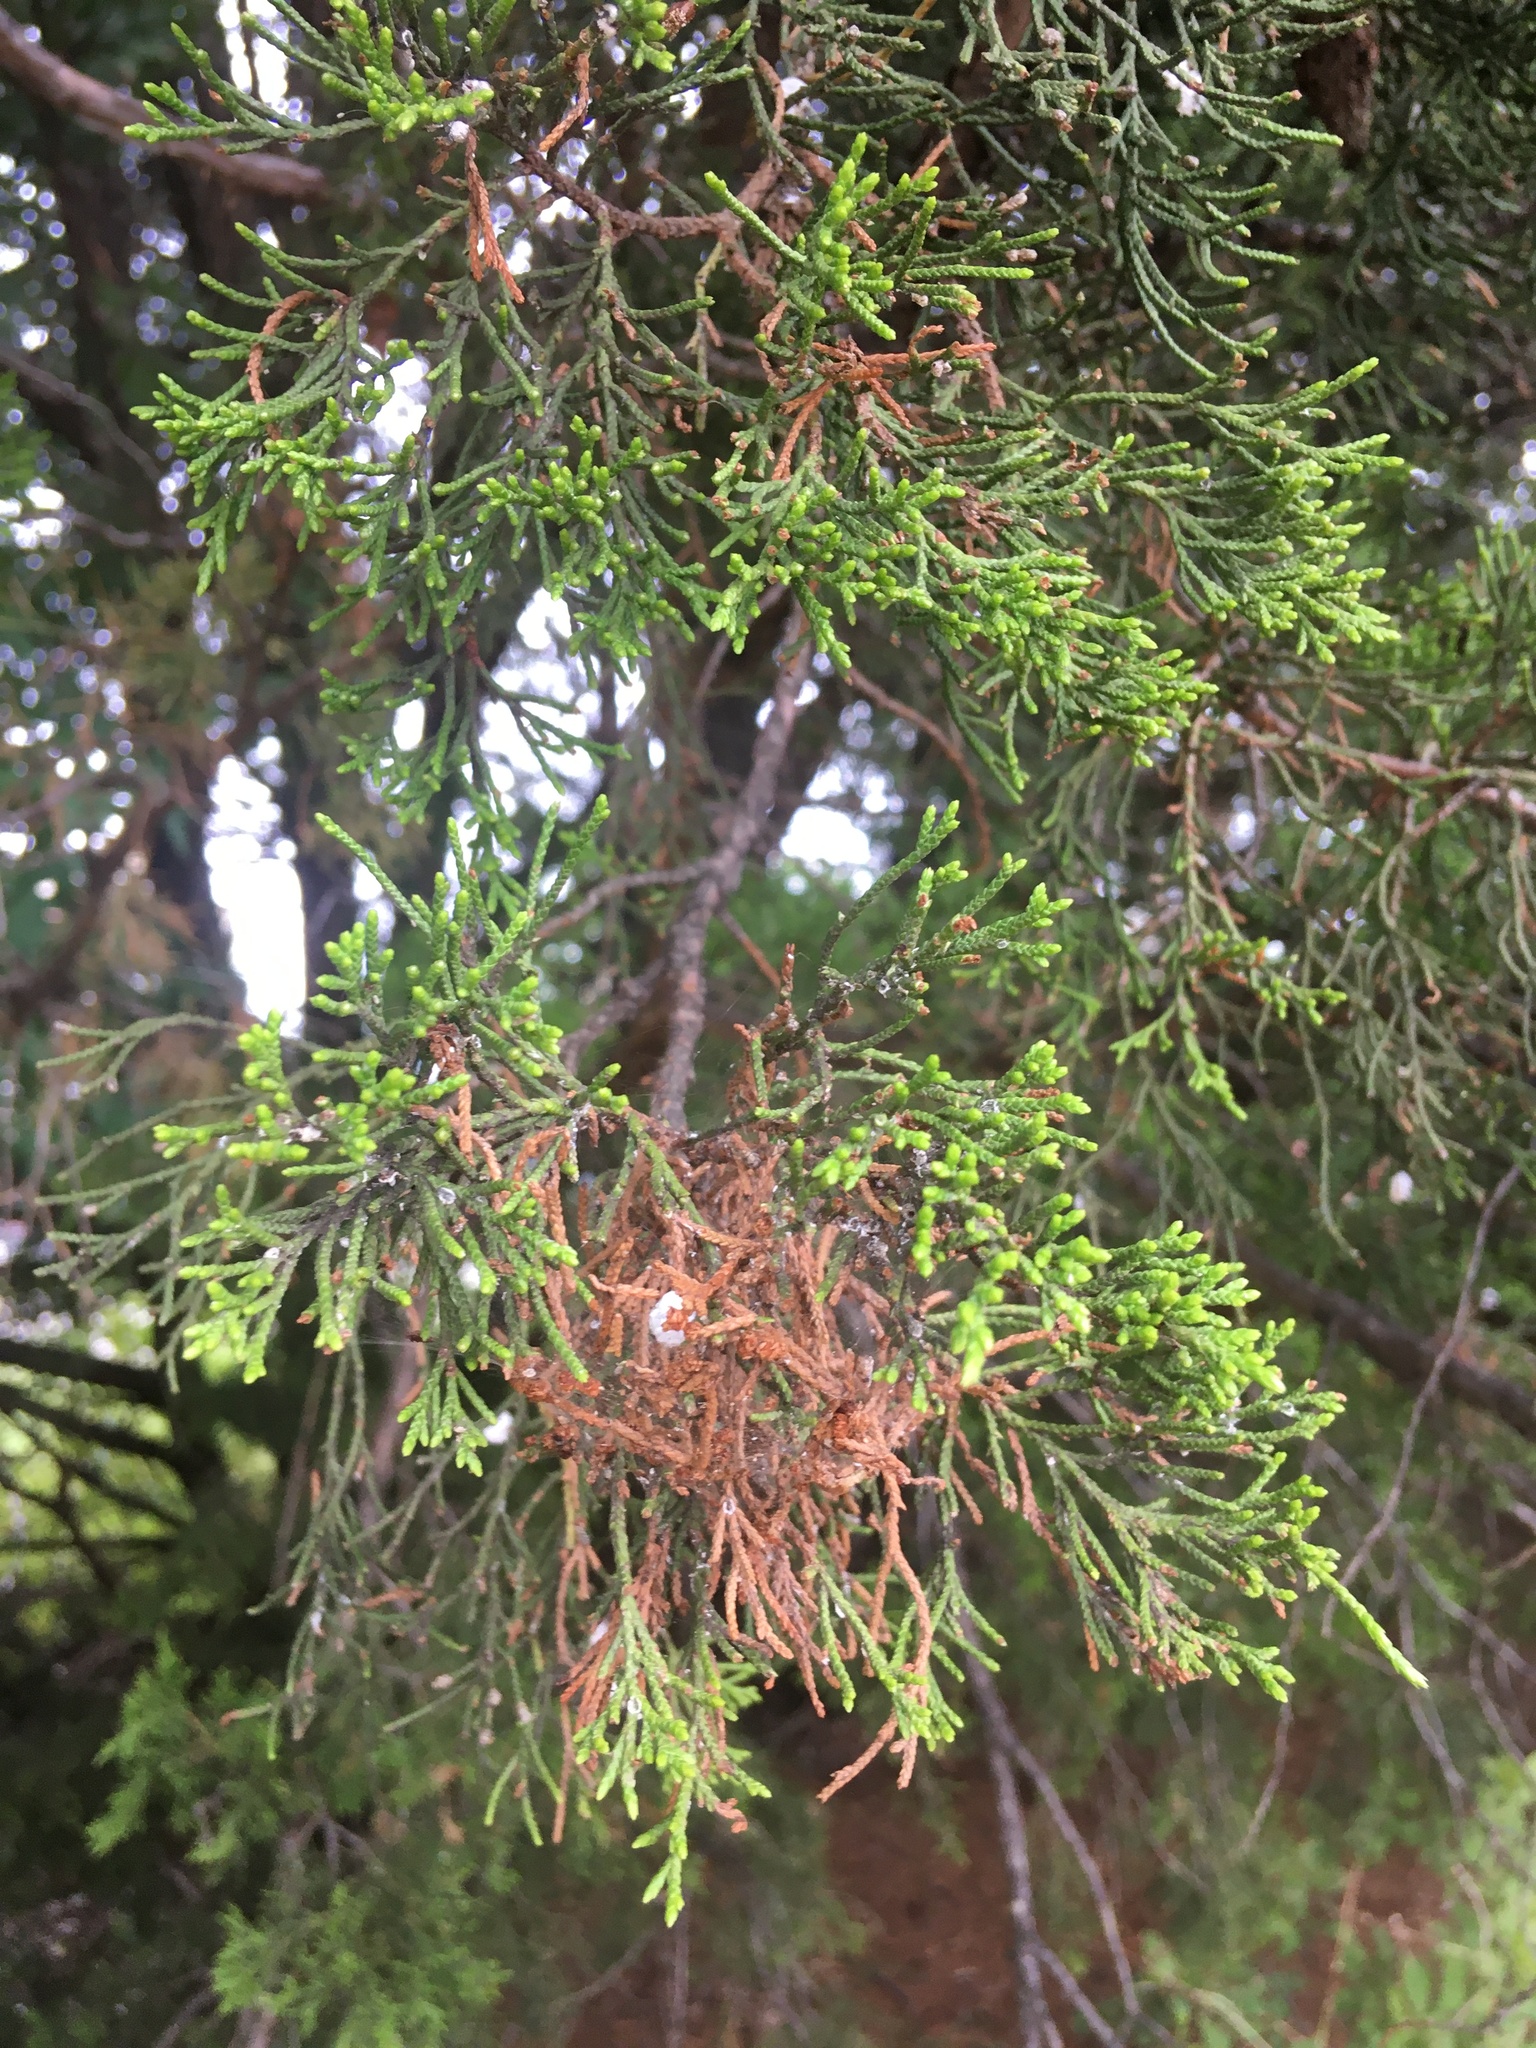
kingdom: Plantae
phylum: Tracheophyta
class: Pinopsida
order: Pinales
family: Cupressaceae
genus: Juniperus
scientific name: Juniperus virginiana
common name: Red juniper
